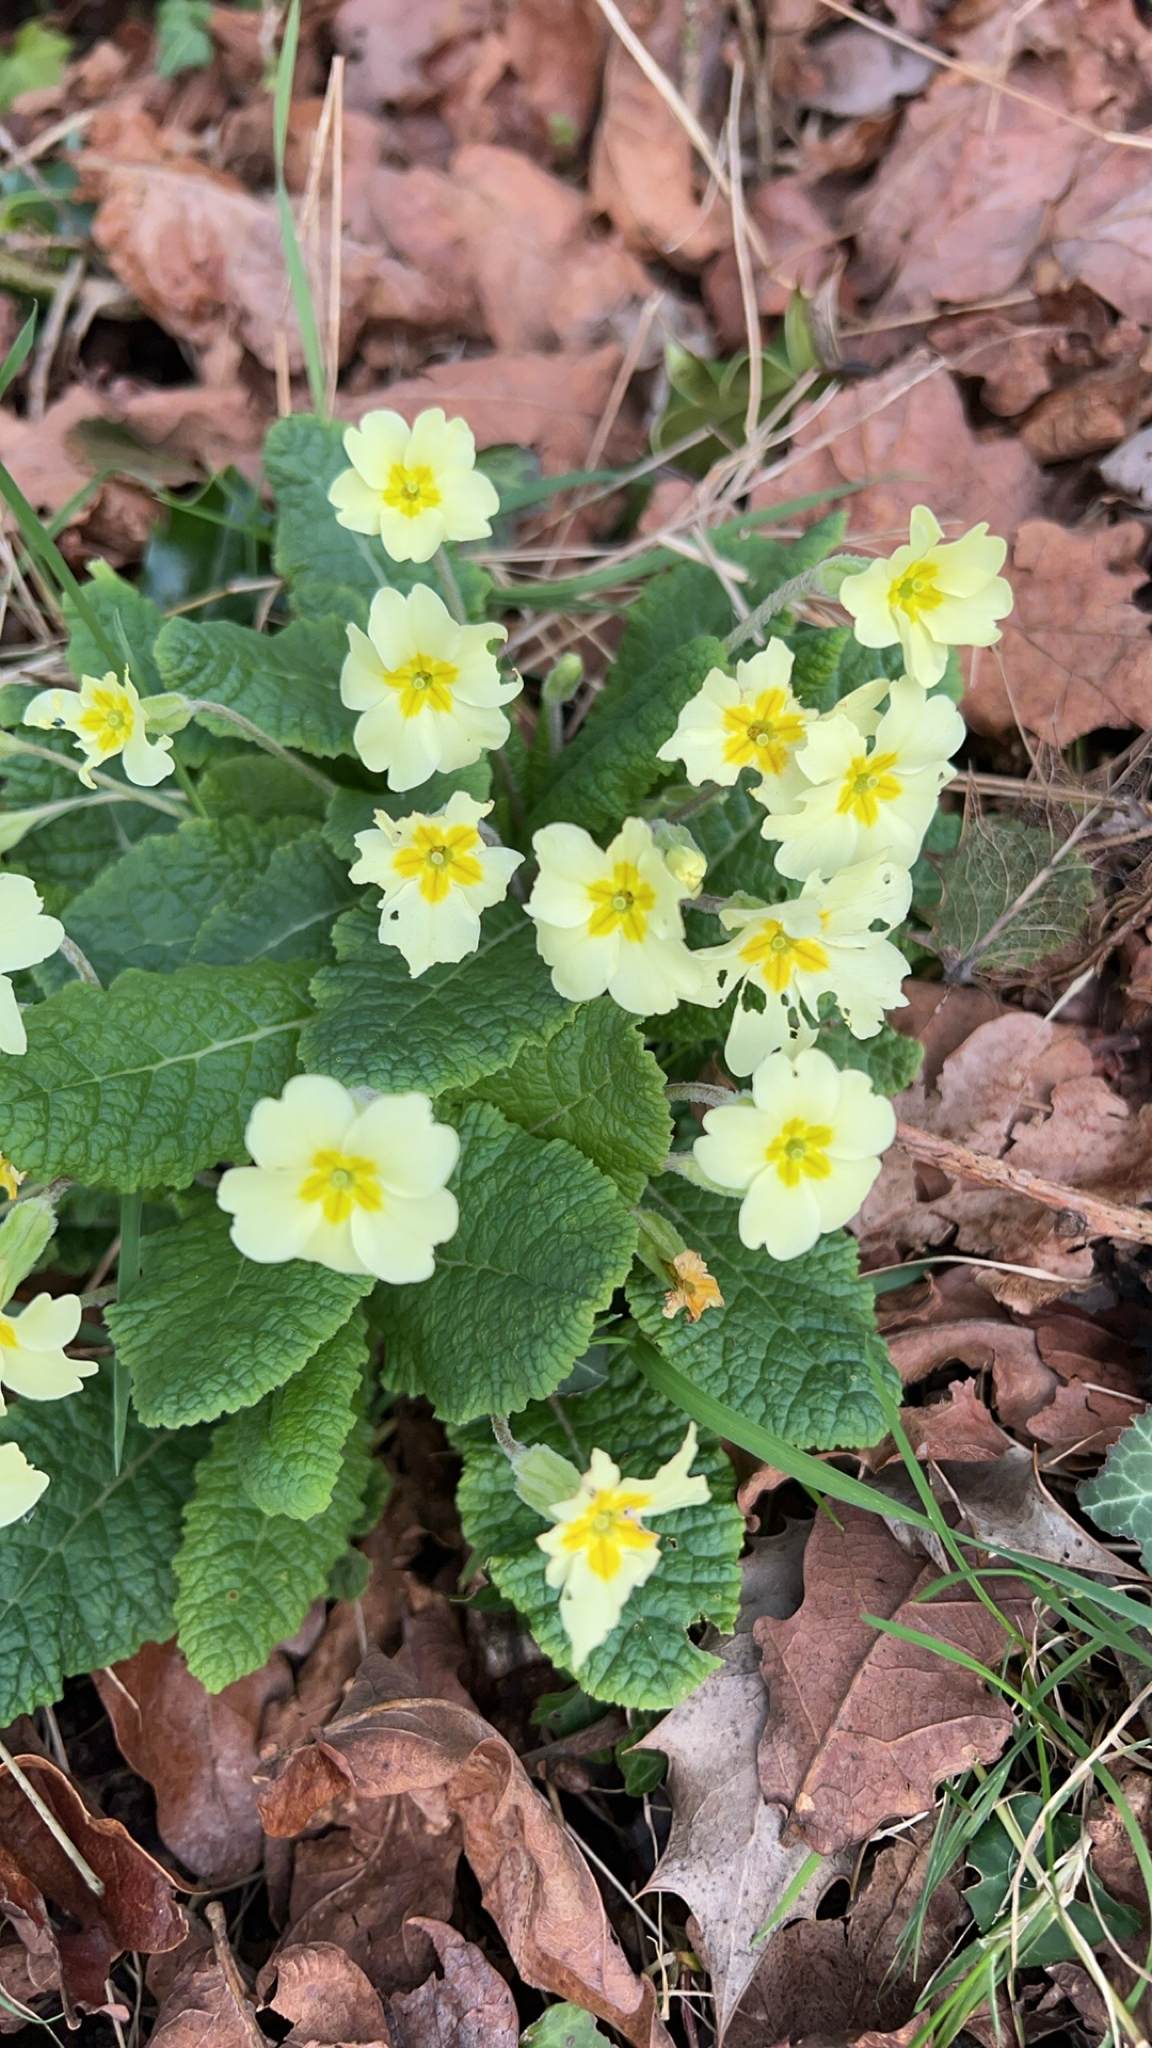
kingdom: Plantae
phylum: Tracheophyta
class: Magnoliopsida
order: Ericales
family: Primulaceae
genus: Primula
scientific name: Primula vulgaris
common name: Primrose
